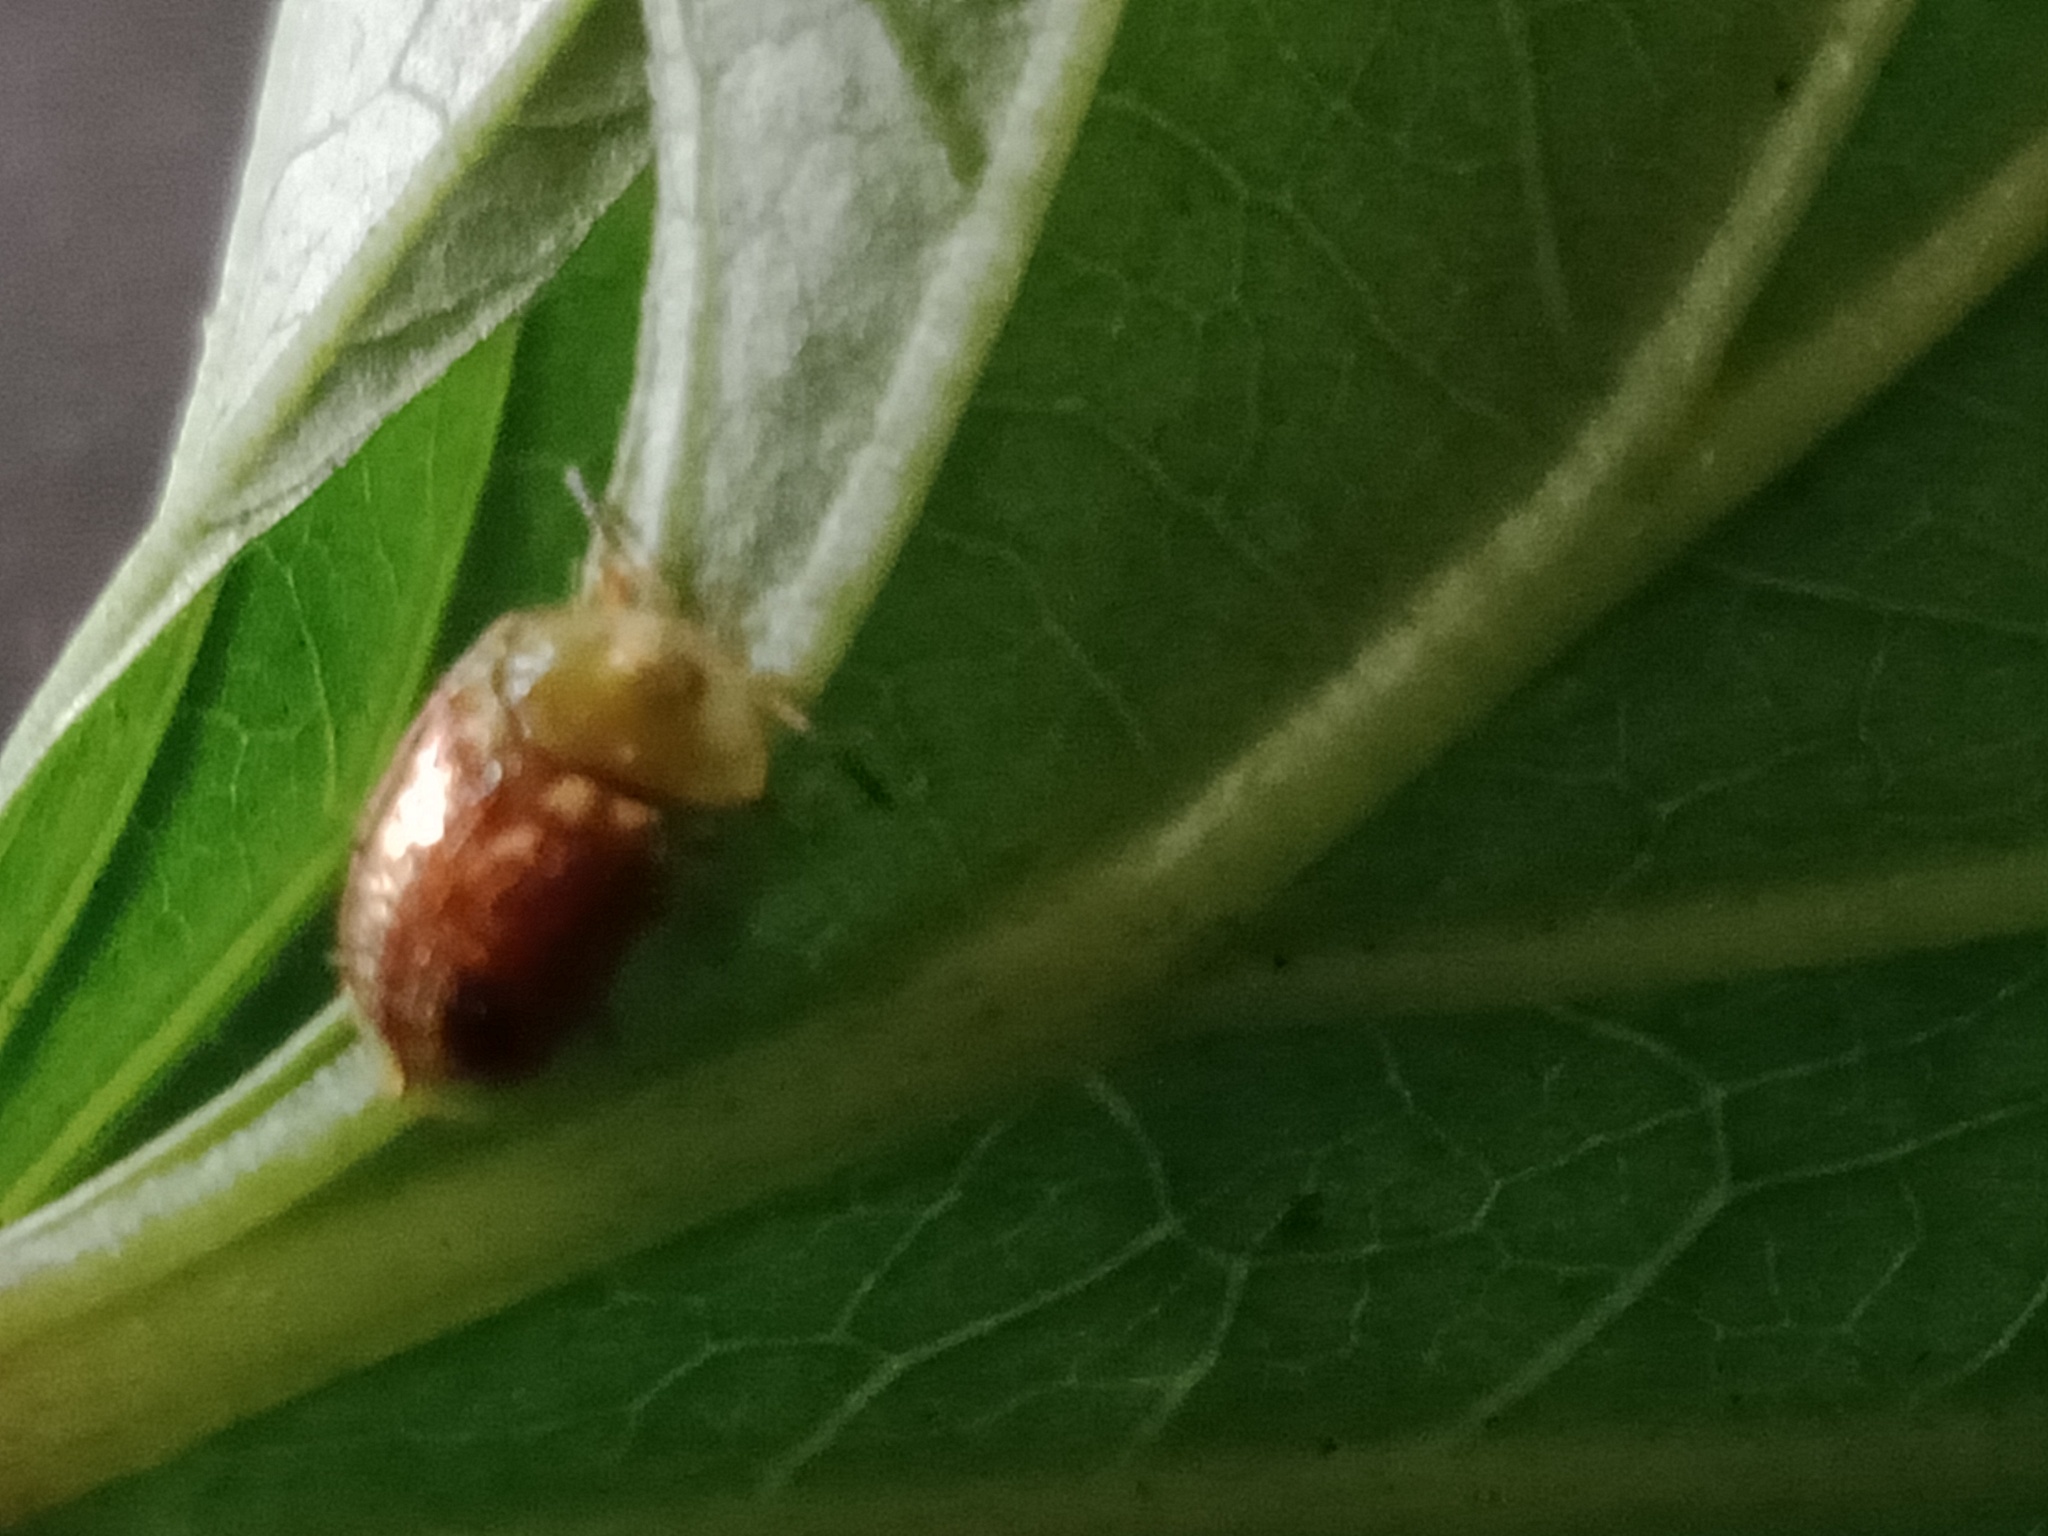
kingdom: Animalia
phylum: Arthropoda
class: Insecta
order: Coleoptera
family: Chrysomelidae
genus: Cassida
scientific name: Cassida compuncta
